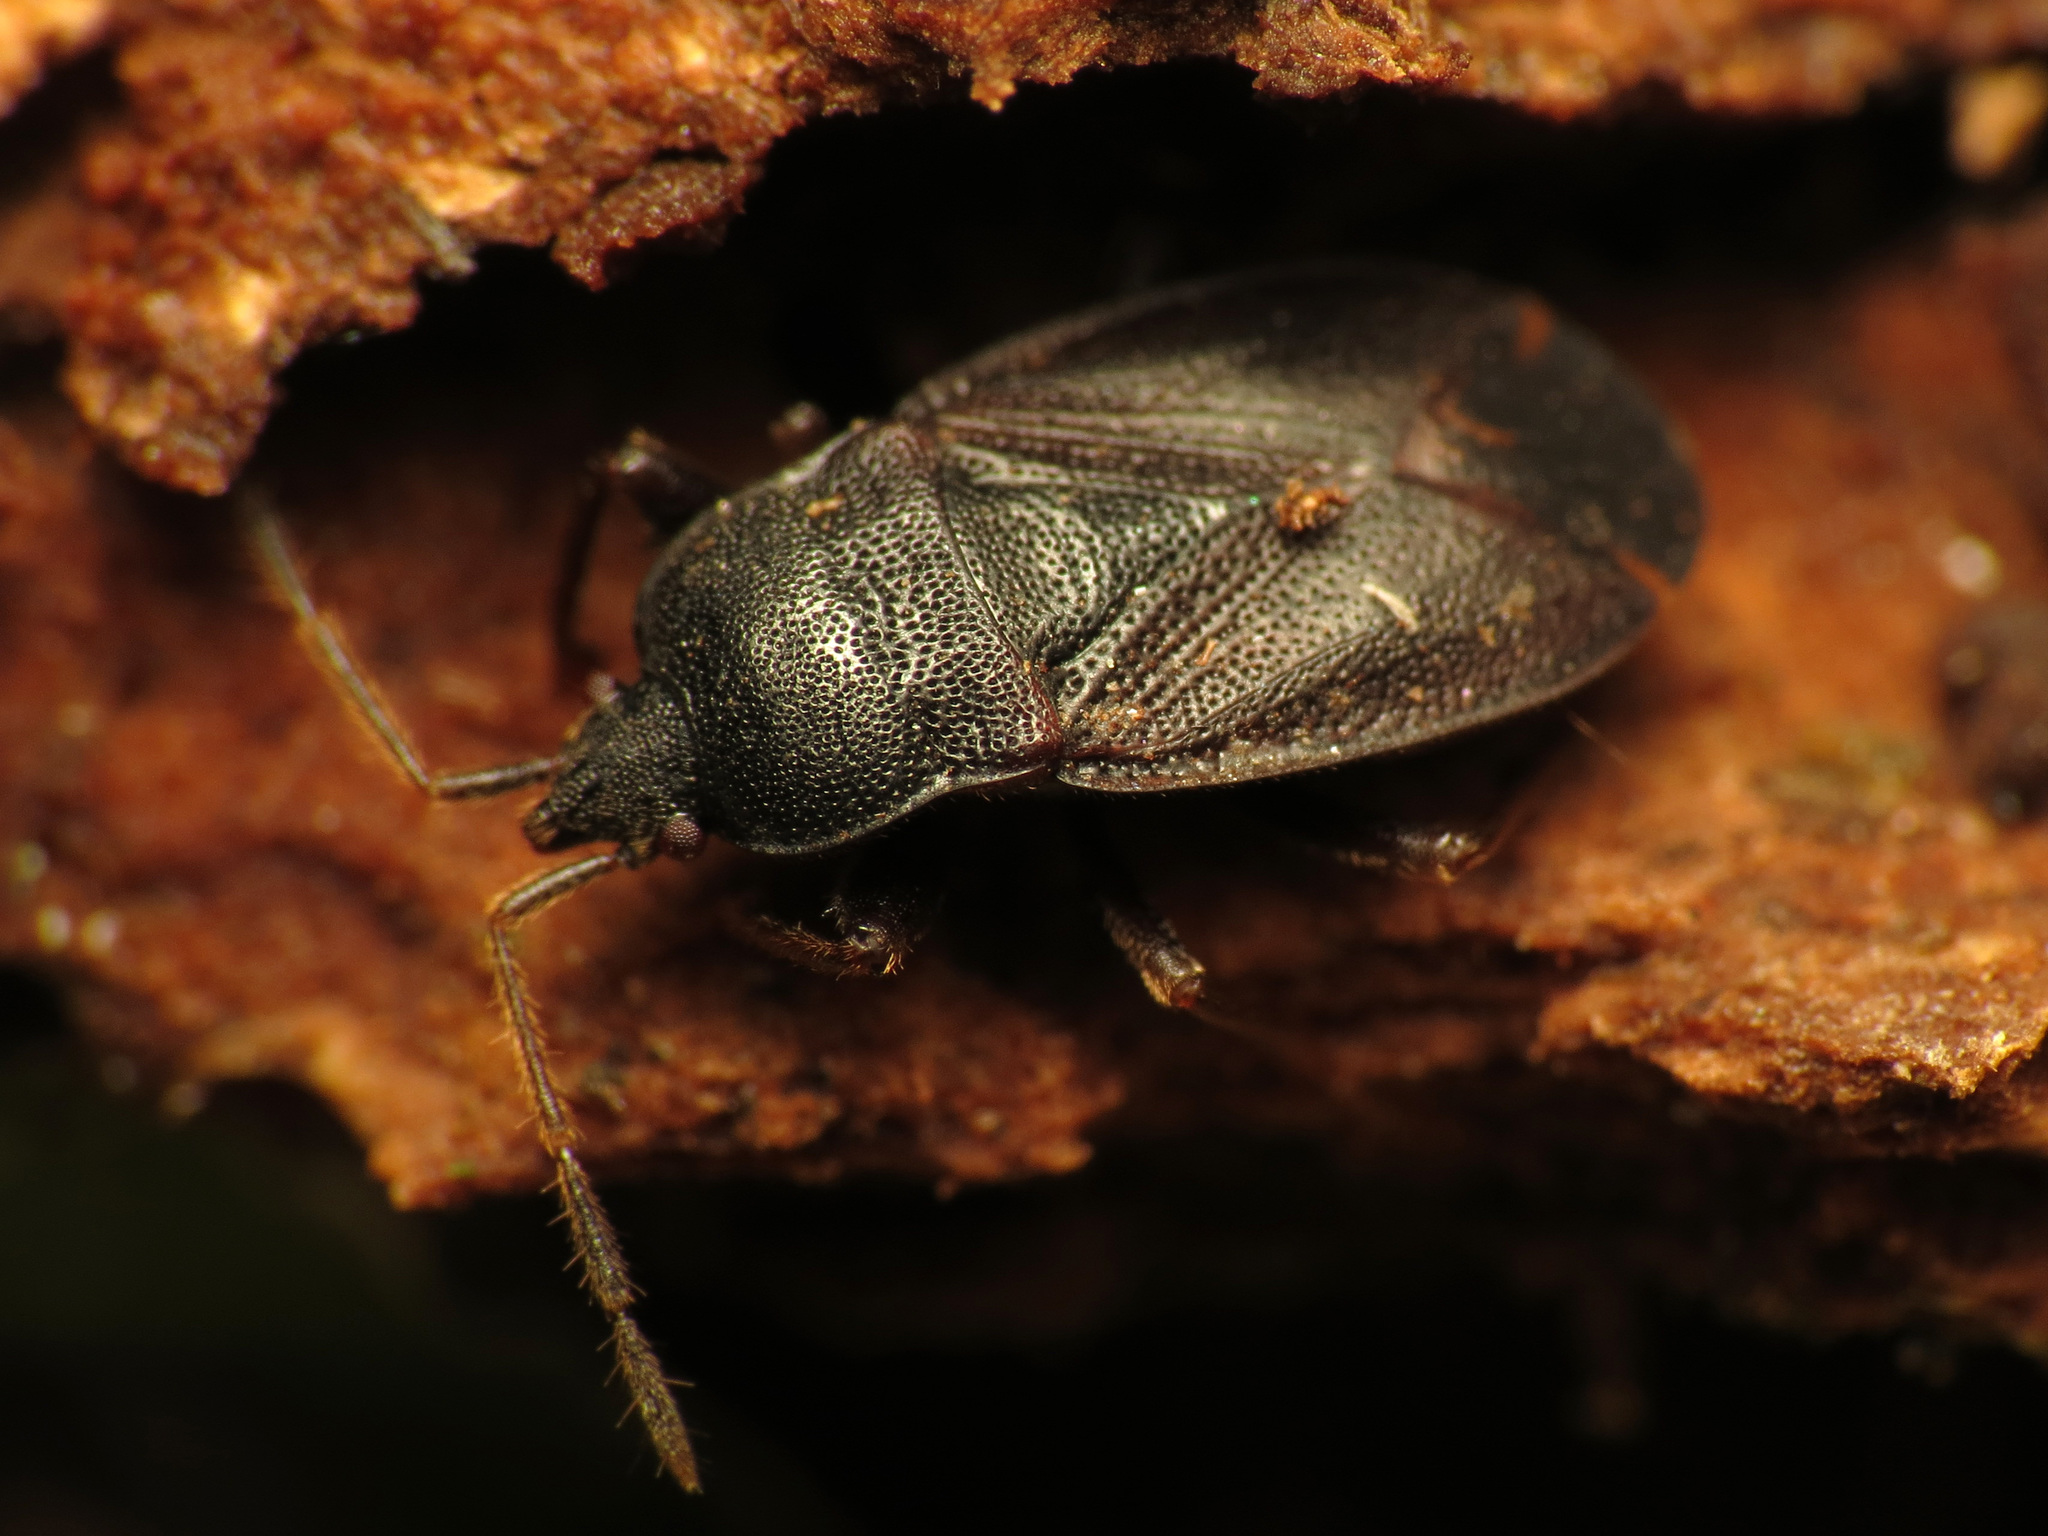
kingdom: Animalia
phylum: Arthropoda
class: Insecta
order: Hemiptera
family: Rhyparochromidae
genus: Drymus
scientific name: Drymus crassus
